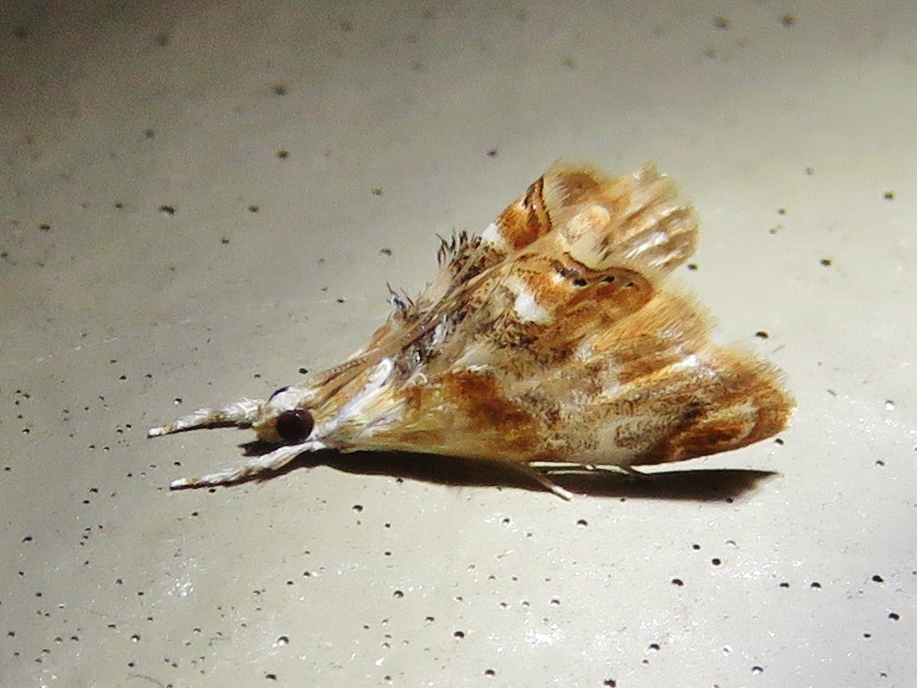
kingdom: Animalia
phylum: Arthropoda
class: Insecta
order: Lepidoptera
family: Crambidae
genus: Dicymolomia
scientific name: Dicymolomia julianalis
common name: Julia's dicymolomia moth
